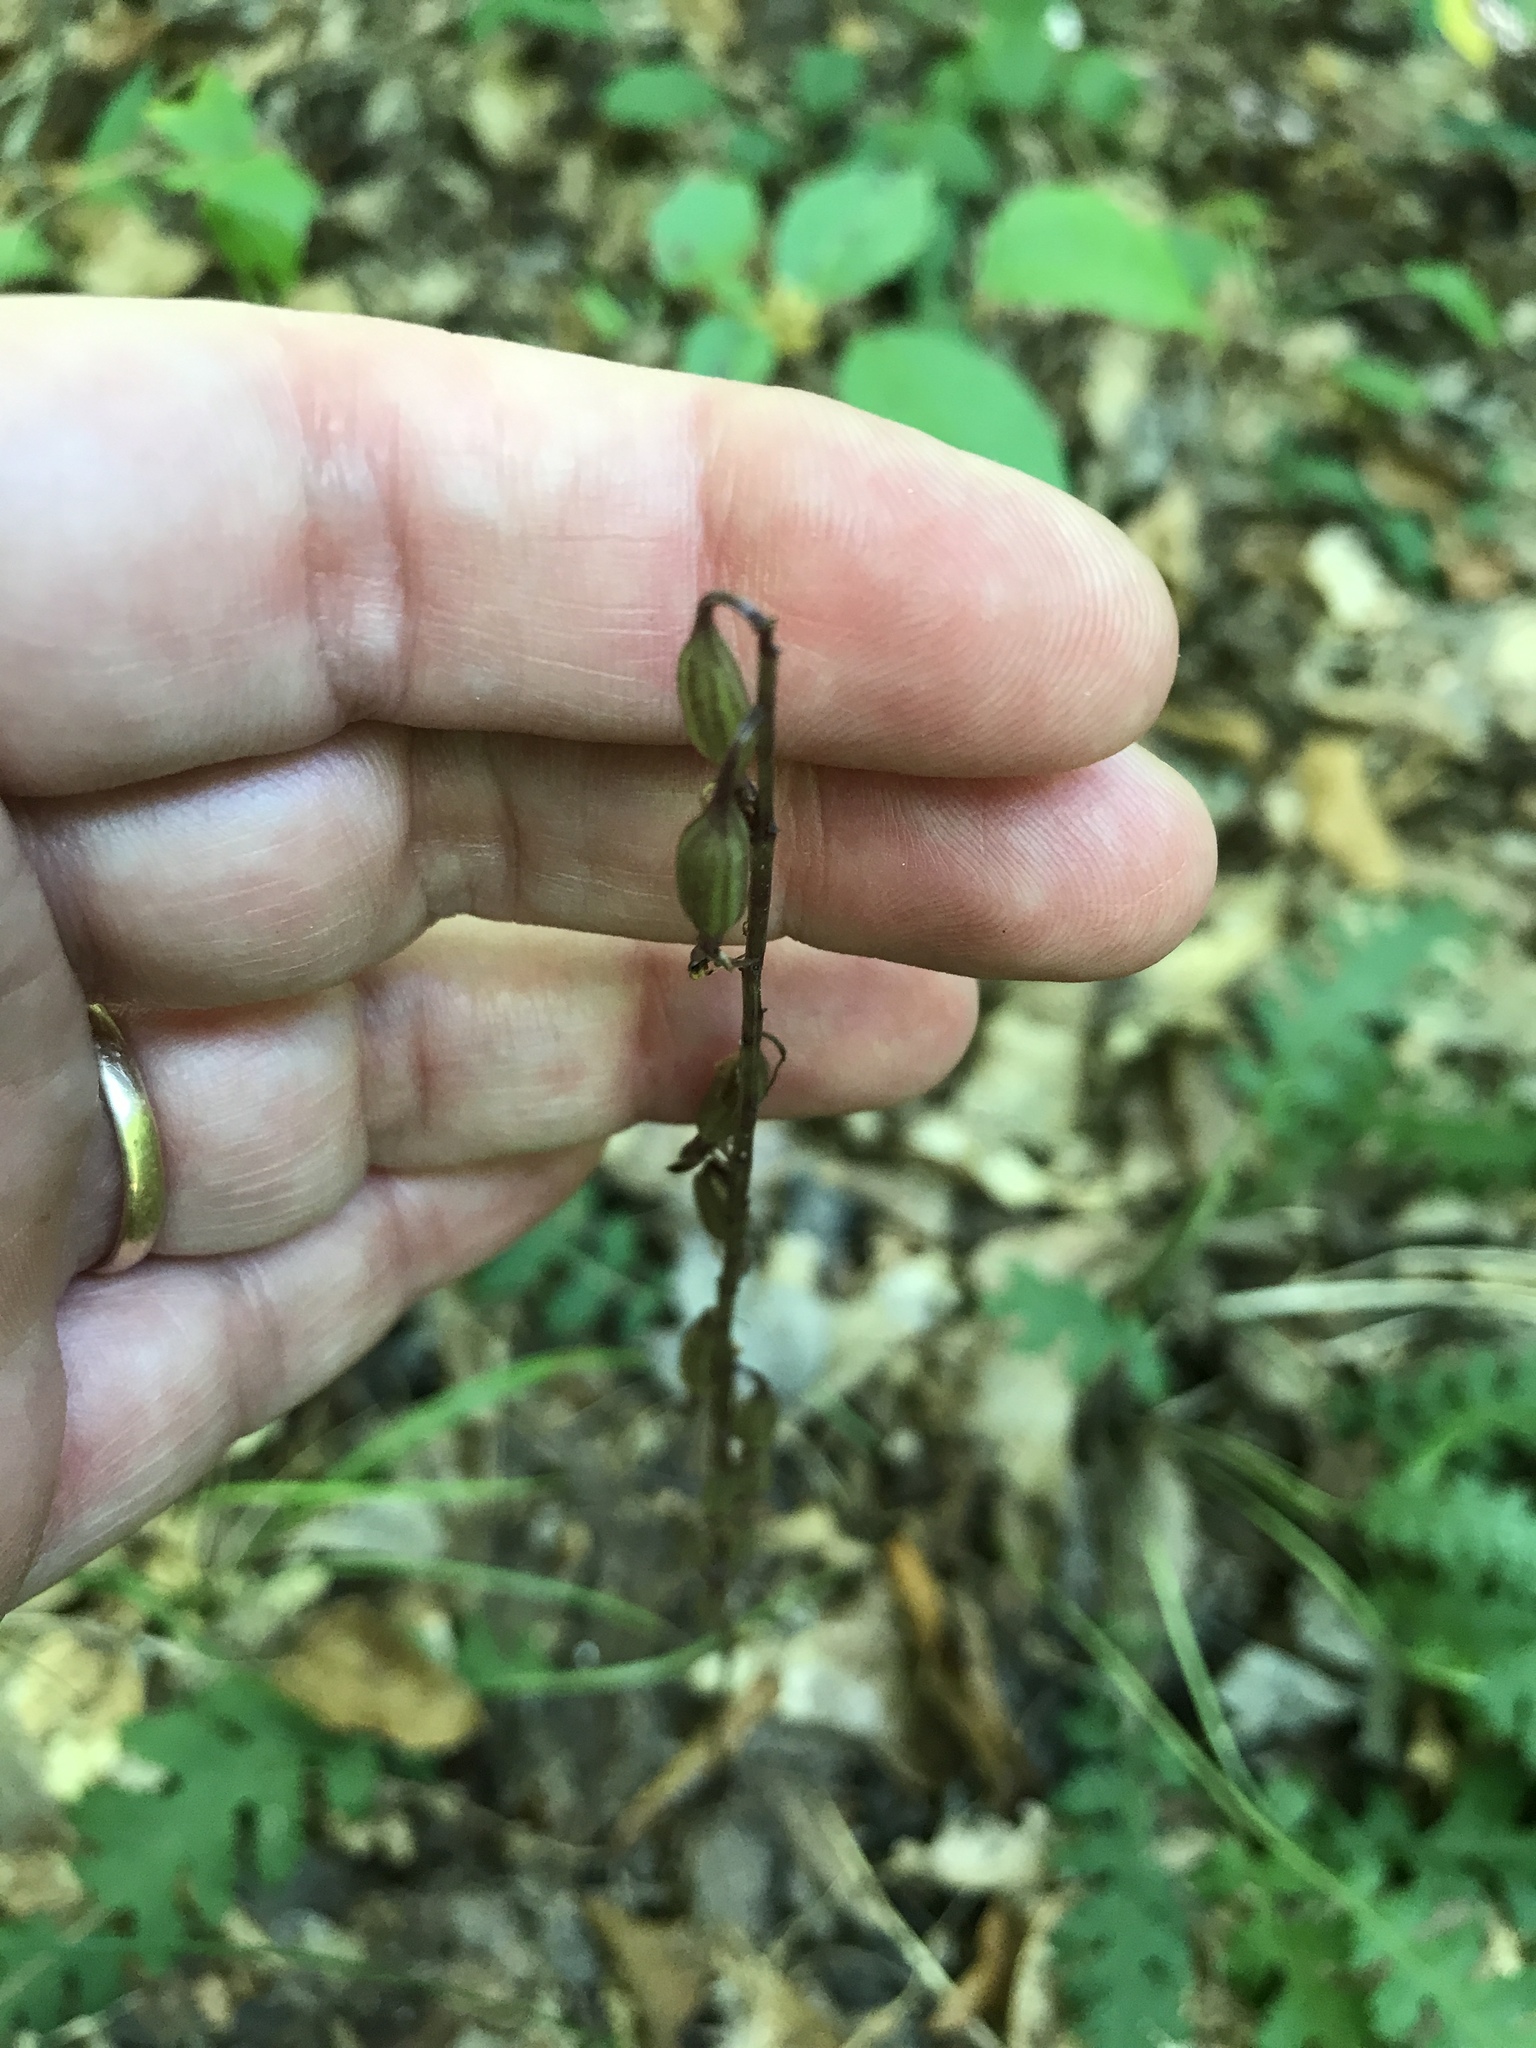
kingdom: Plantae
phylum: Tracheophyta
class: Liliopsida
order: Asparagales
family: Orchidaceae
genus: Tipularia
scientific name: Tipularia discolor
